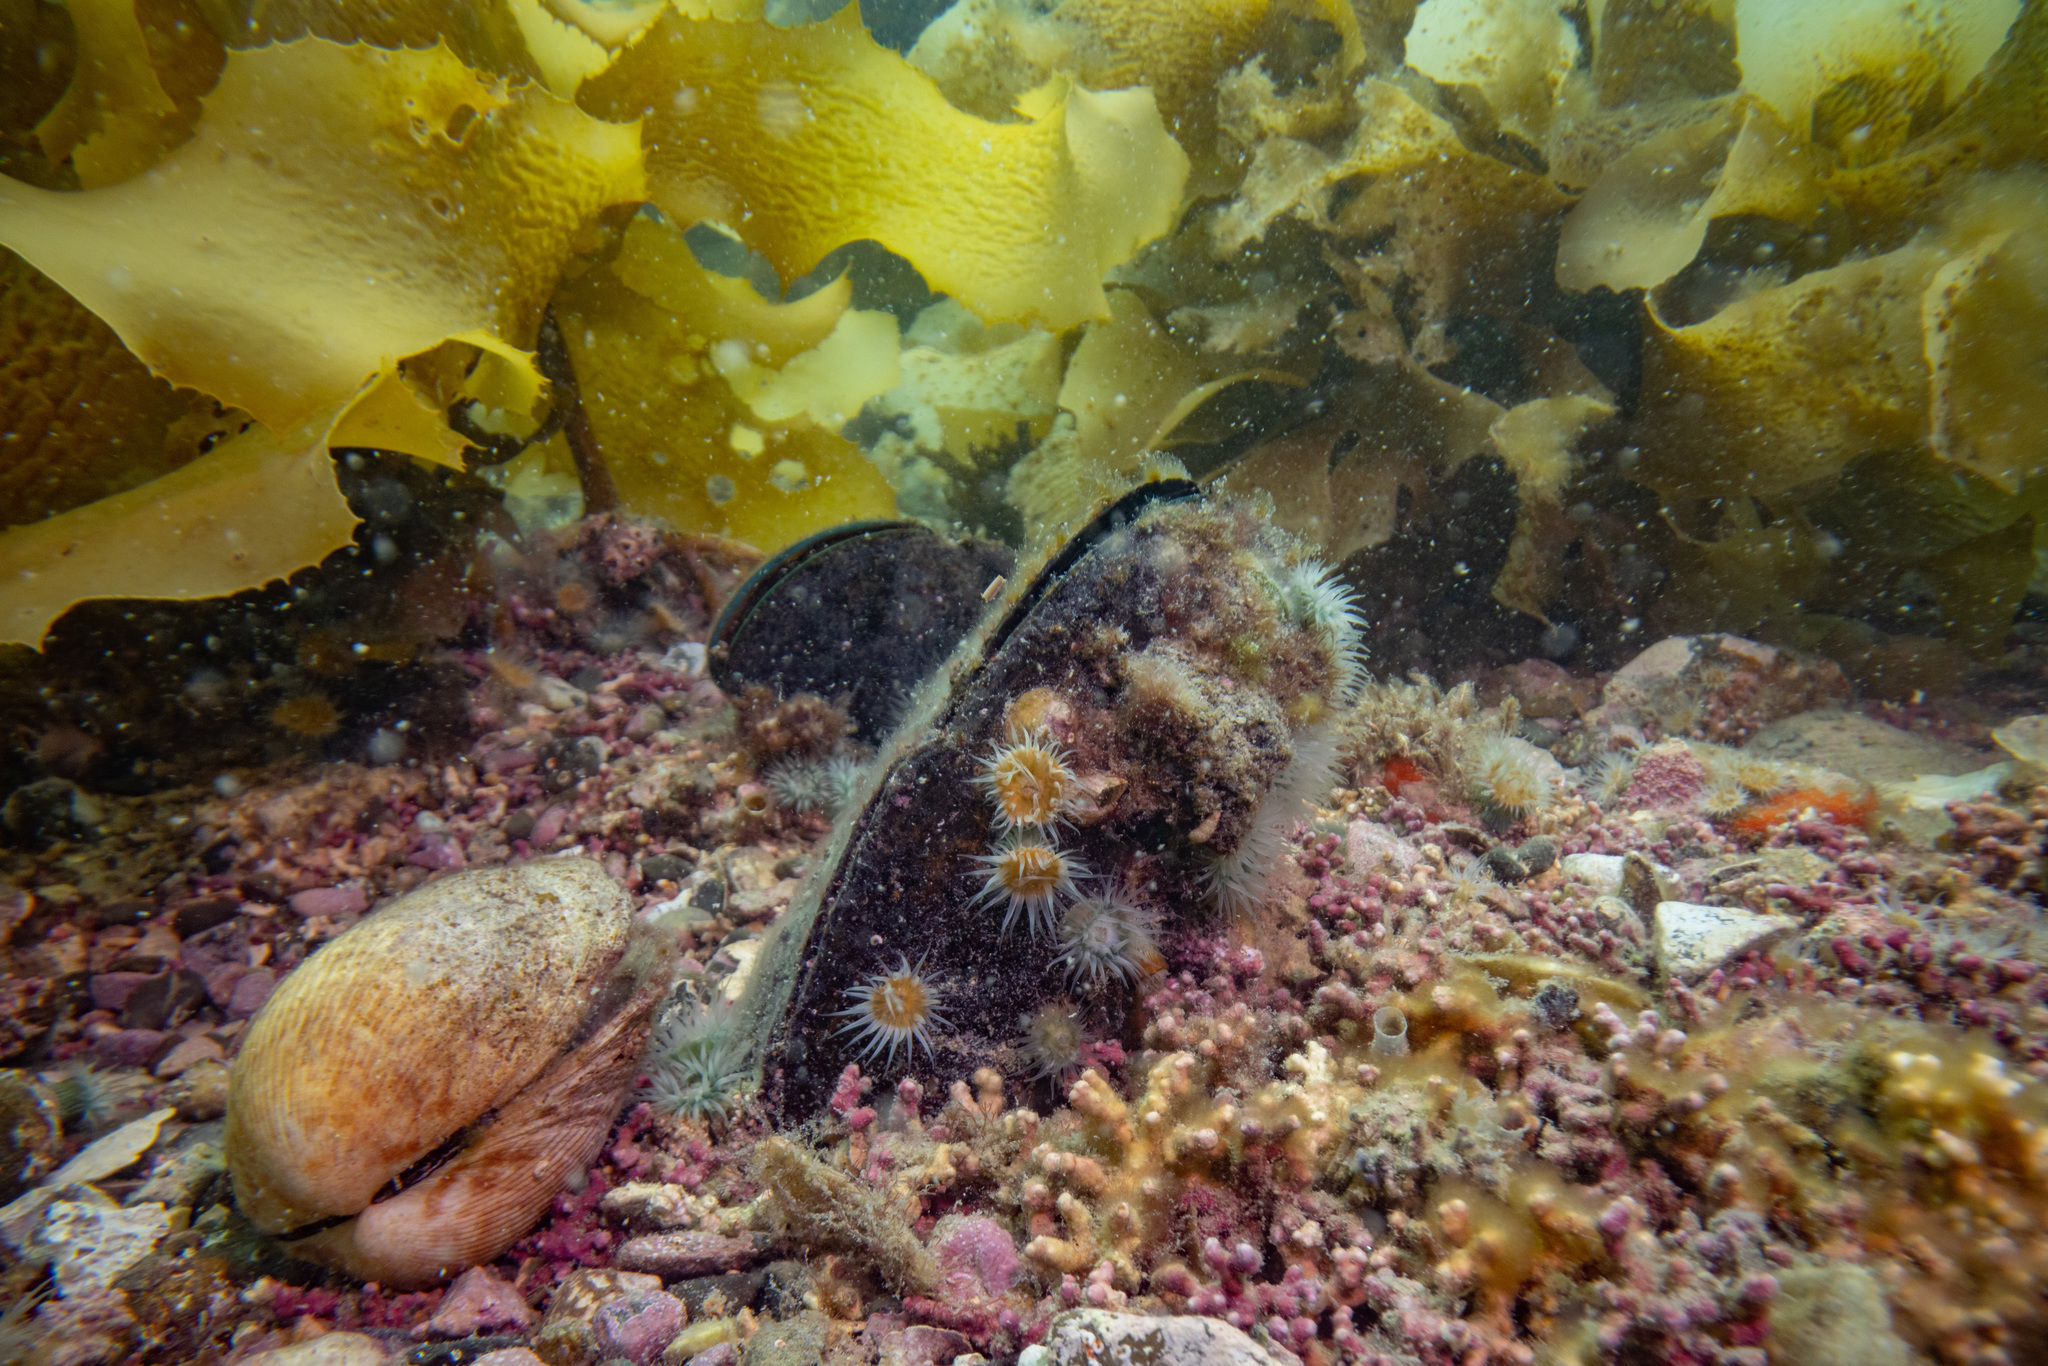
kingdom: Animalia
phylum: Mollusca
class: Bivalvia
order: Mytilida
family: Mytilidae
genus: Perna
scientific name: Perna canaliculus
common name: New zealand greenshelltm
